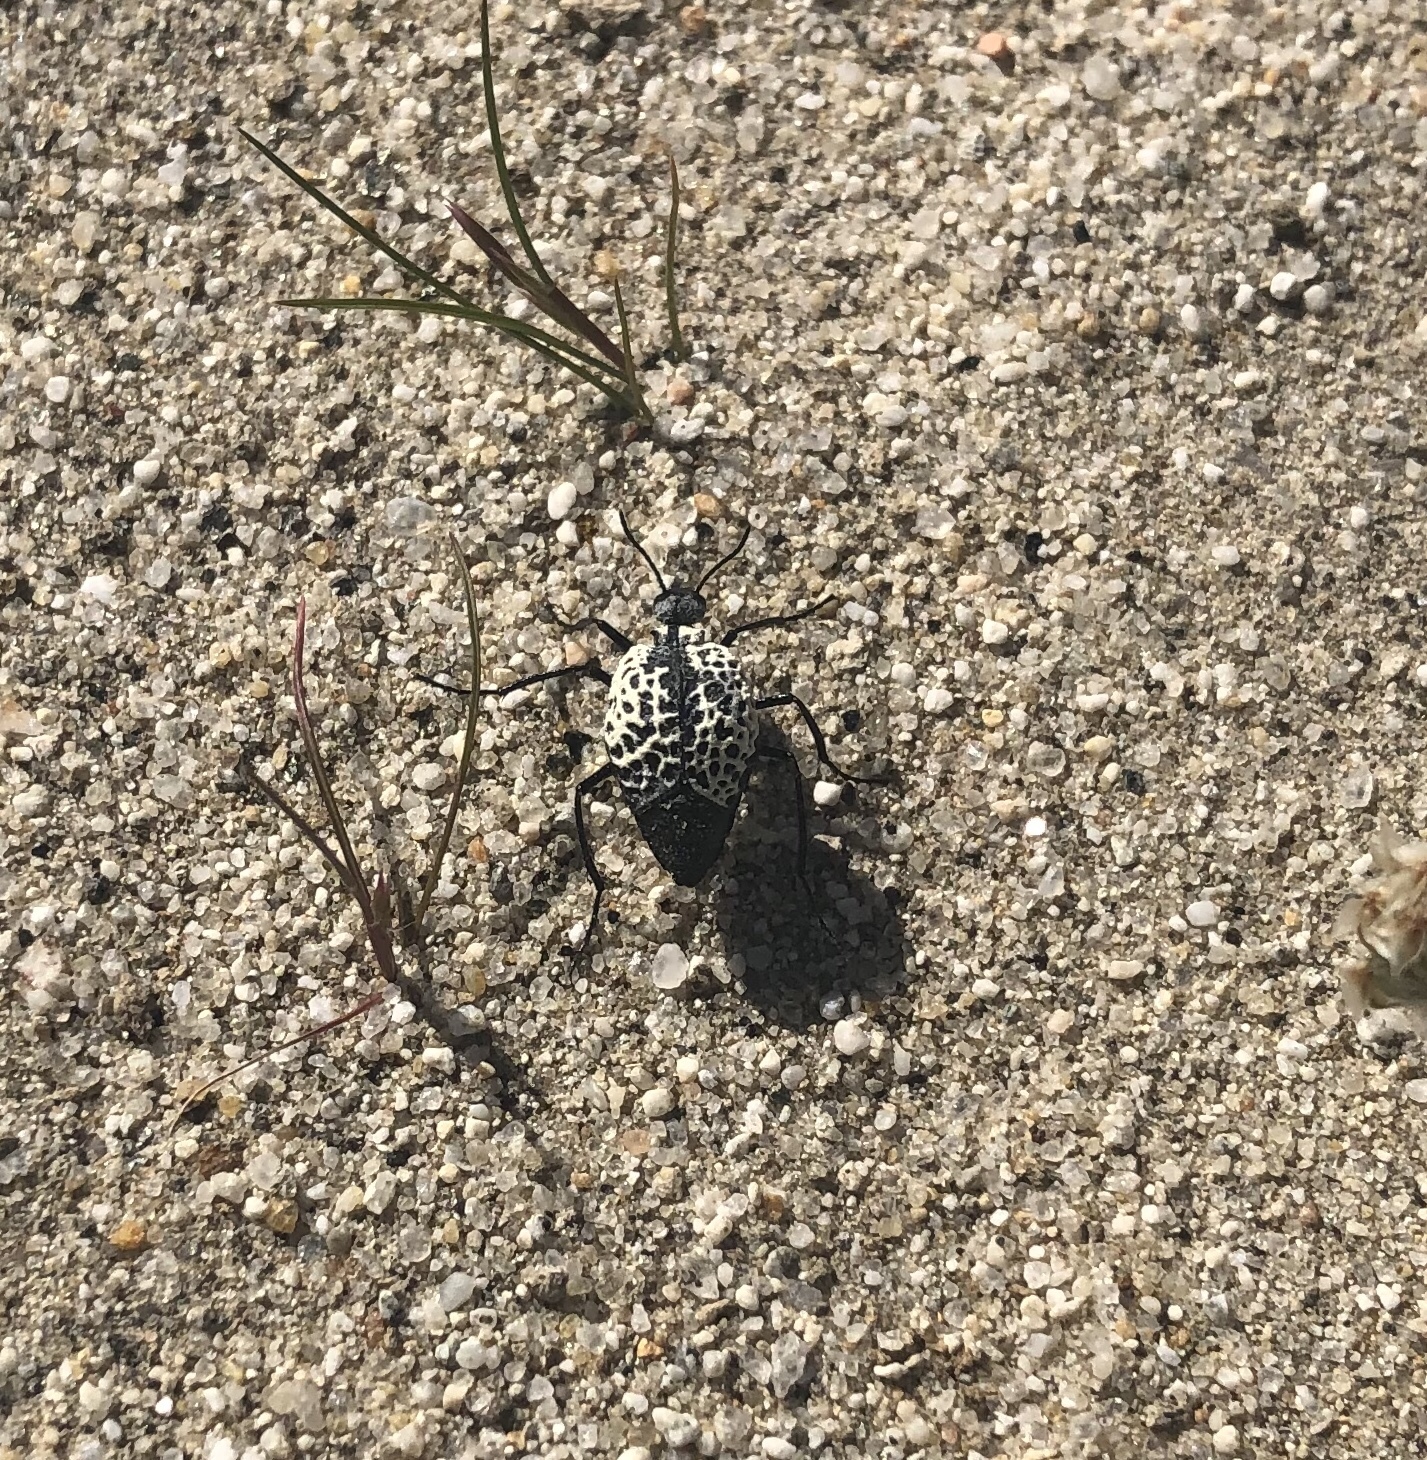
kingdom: Animalia
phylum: Arthropoda
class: Insecta
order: Coleoptera
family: Meloidae
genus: Cysteodemus
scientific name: Cysteodemus armatus
